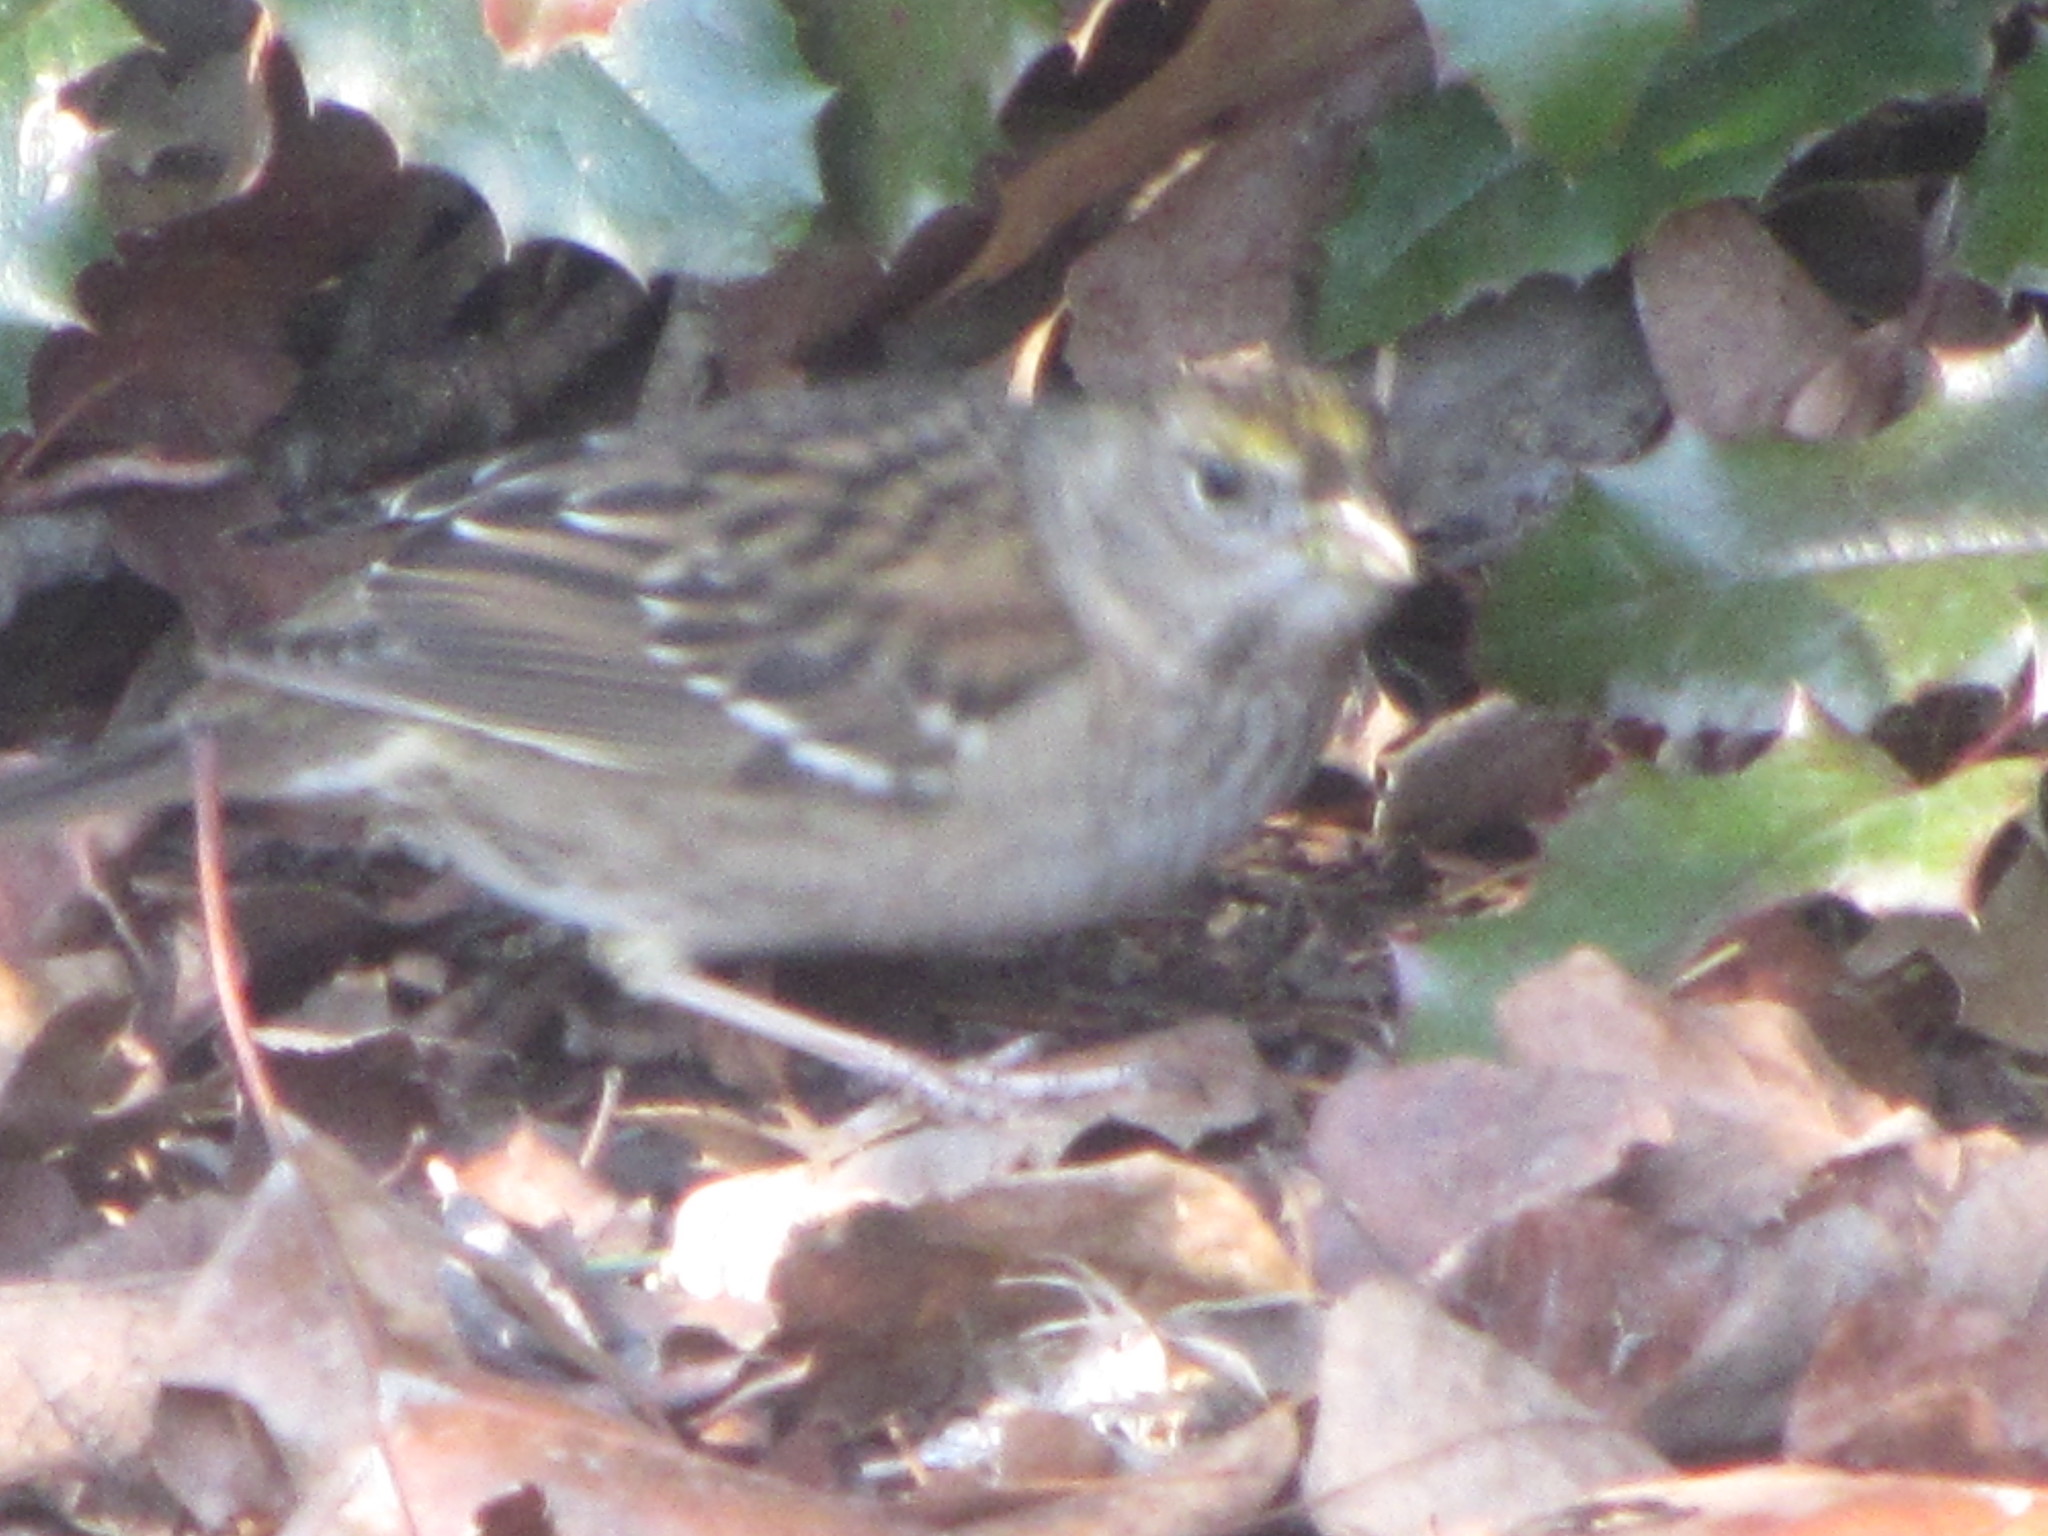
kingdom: Animalia
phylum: Chordata
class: Aves
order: Passeriformes
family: Passerellidae
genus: Zonotrichia
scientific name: Zonotrichia atricapilla
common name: Golden-crowned sparrow
